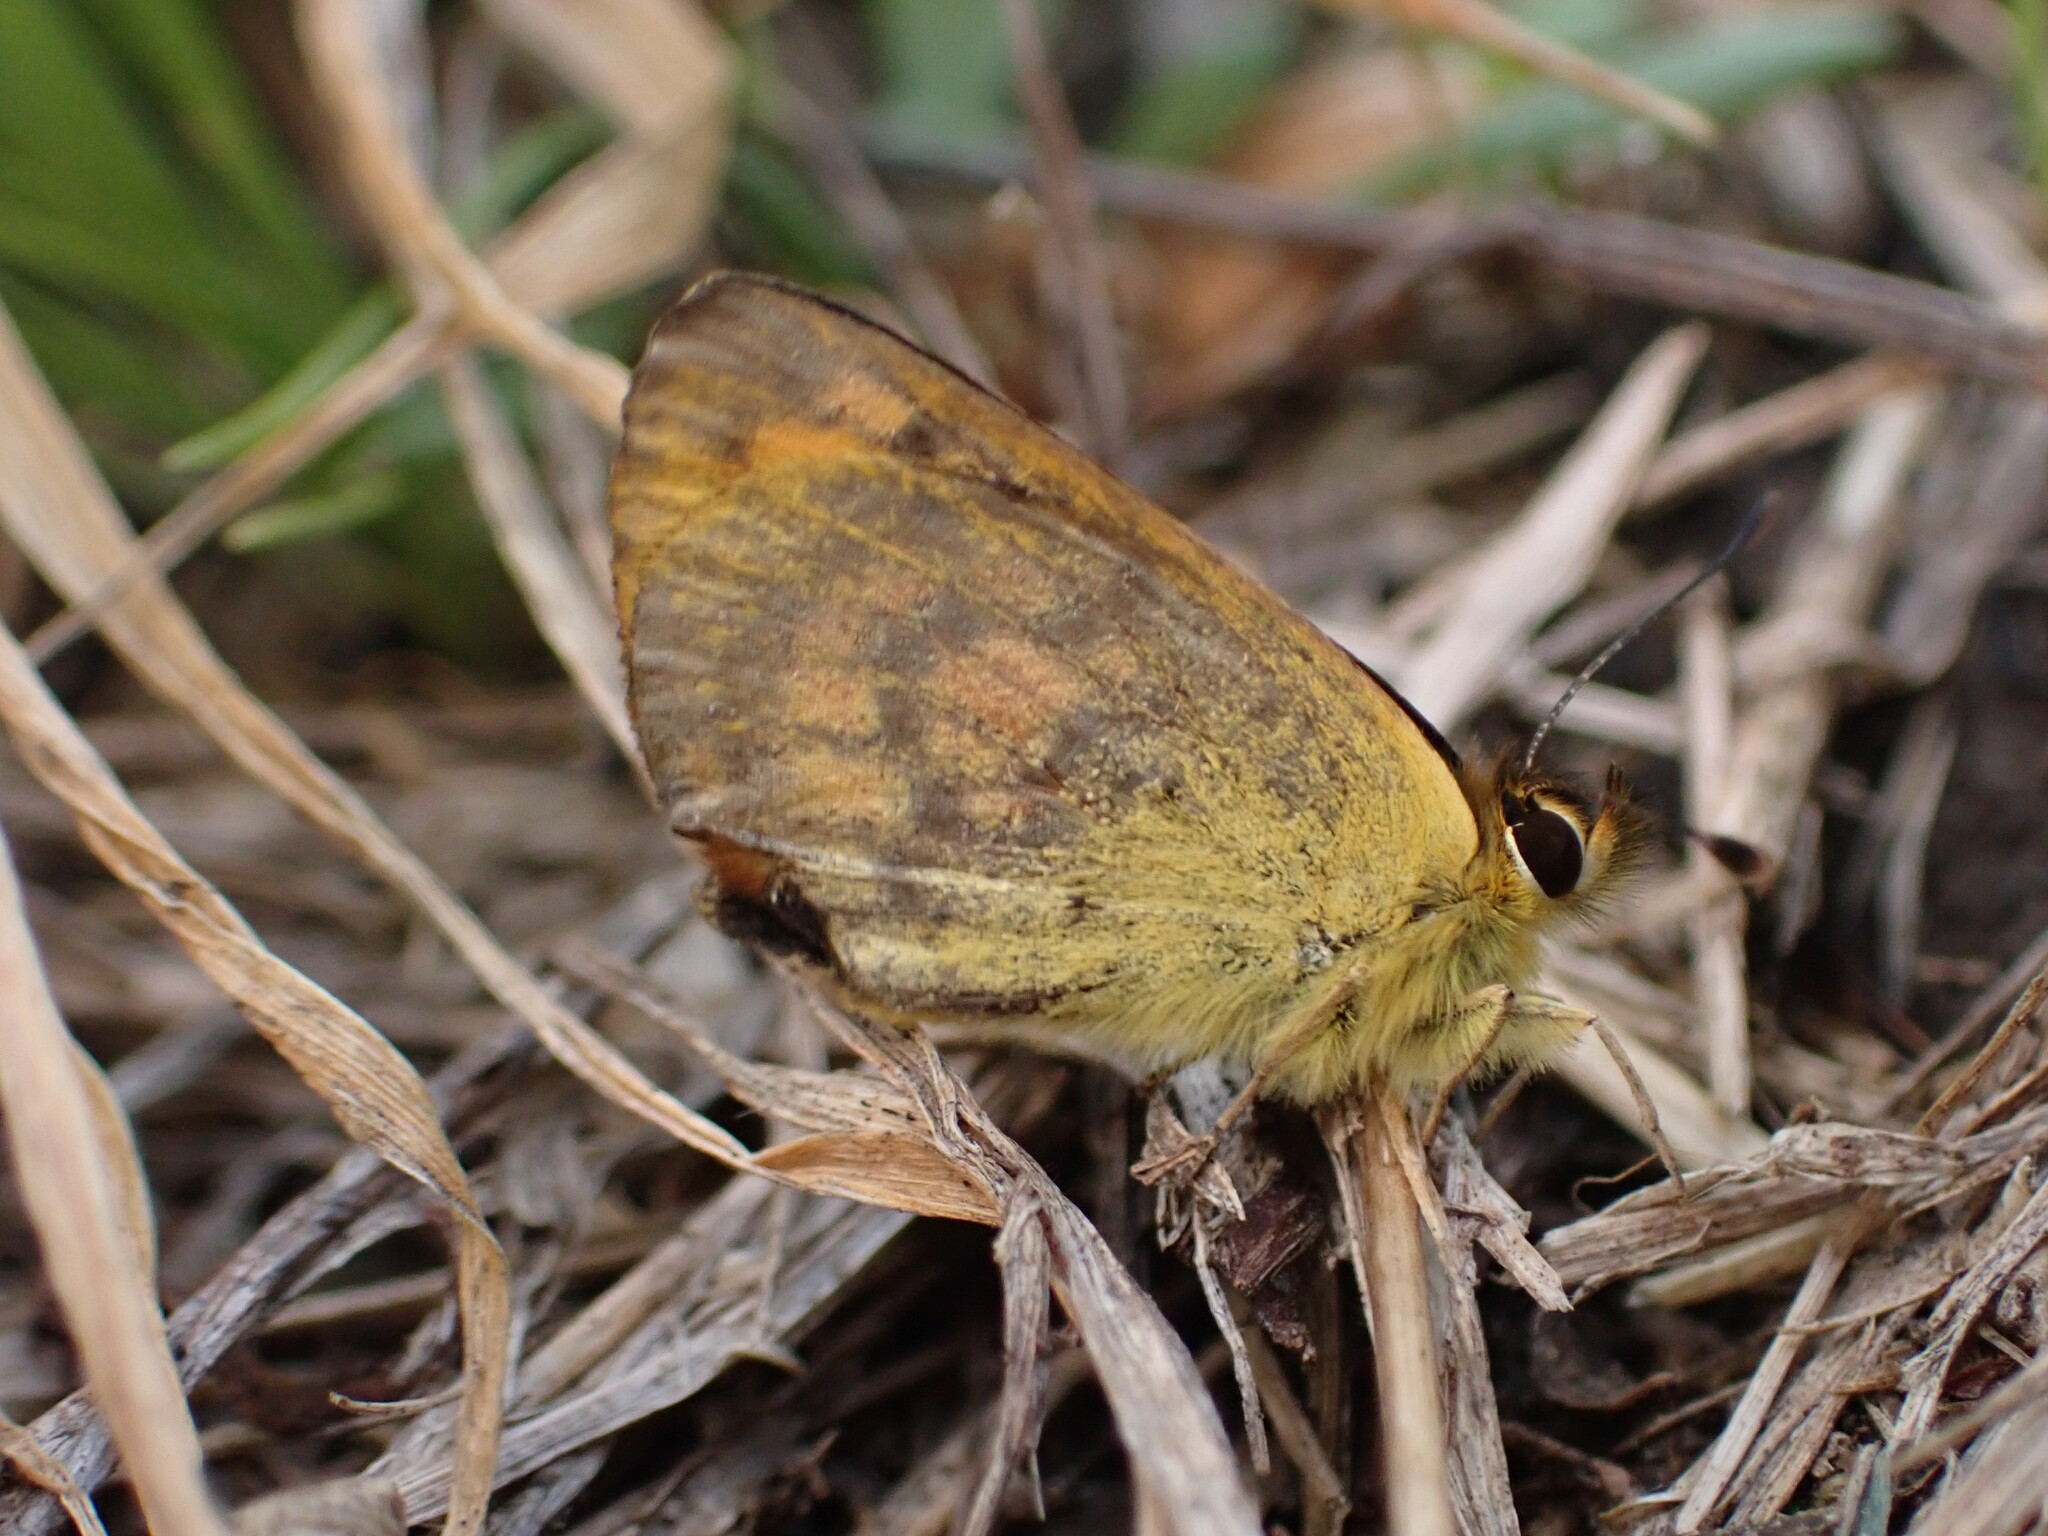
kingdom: Animalia
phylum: Arthropoda
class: Insecta
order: Lepidoptera
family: Lycaenidae
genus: Lycaena
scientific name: Lycaena
